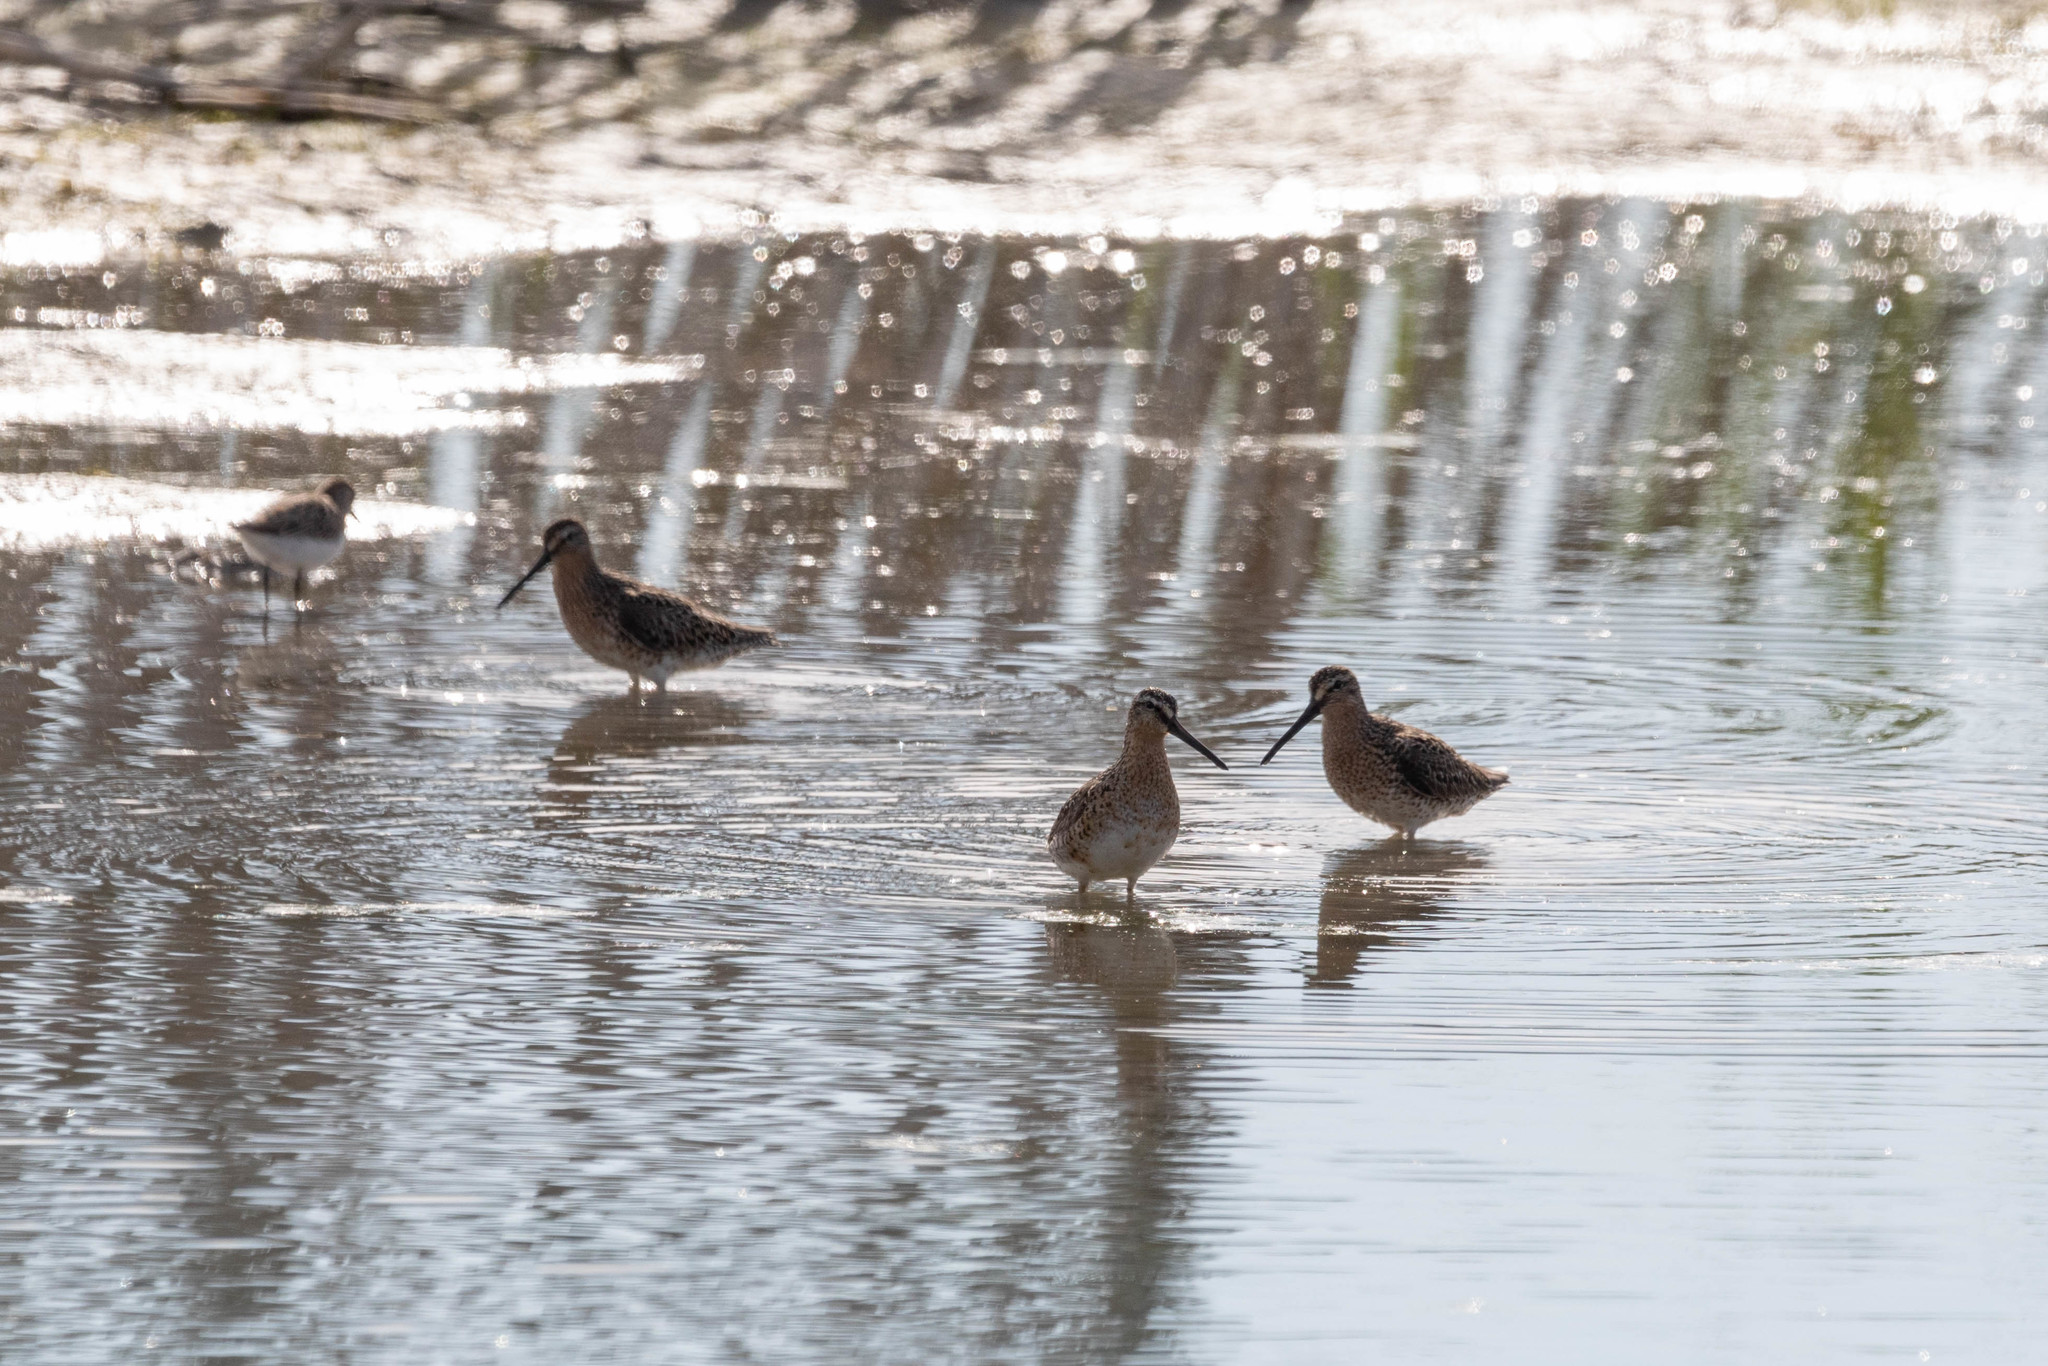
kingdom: Animalia
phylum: Chordata
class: Aves
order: Charadriiformes
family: Scolopacidae
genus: Limnodromus
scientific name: Limnodromus griseus
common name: Short-billed dowitcher
